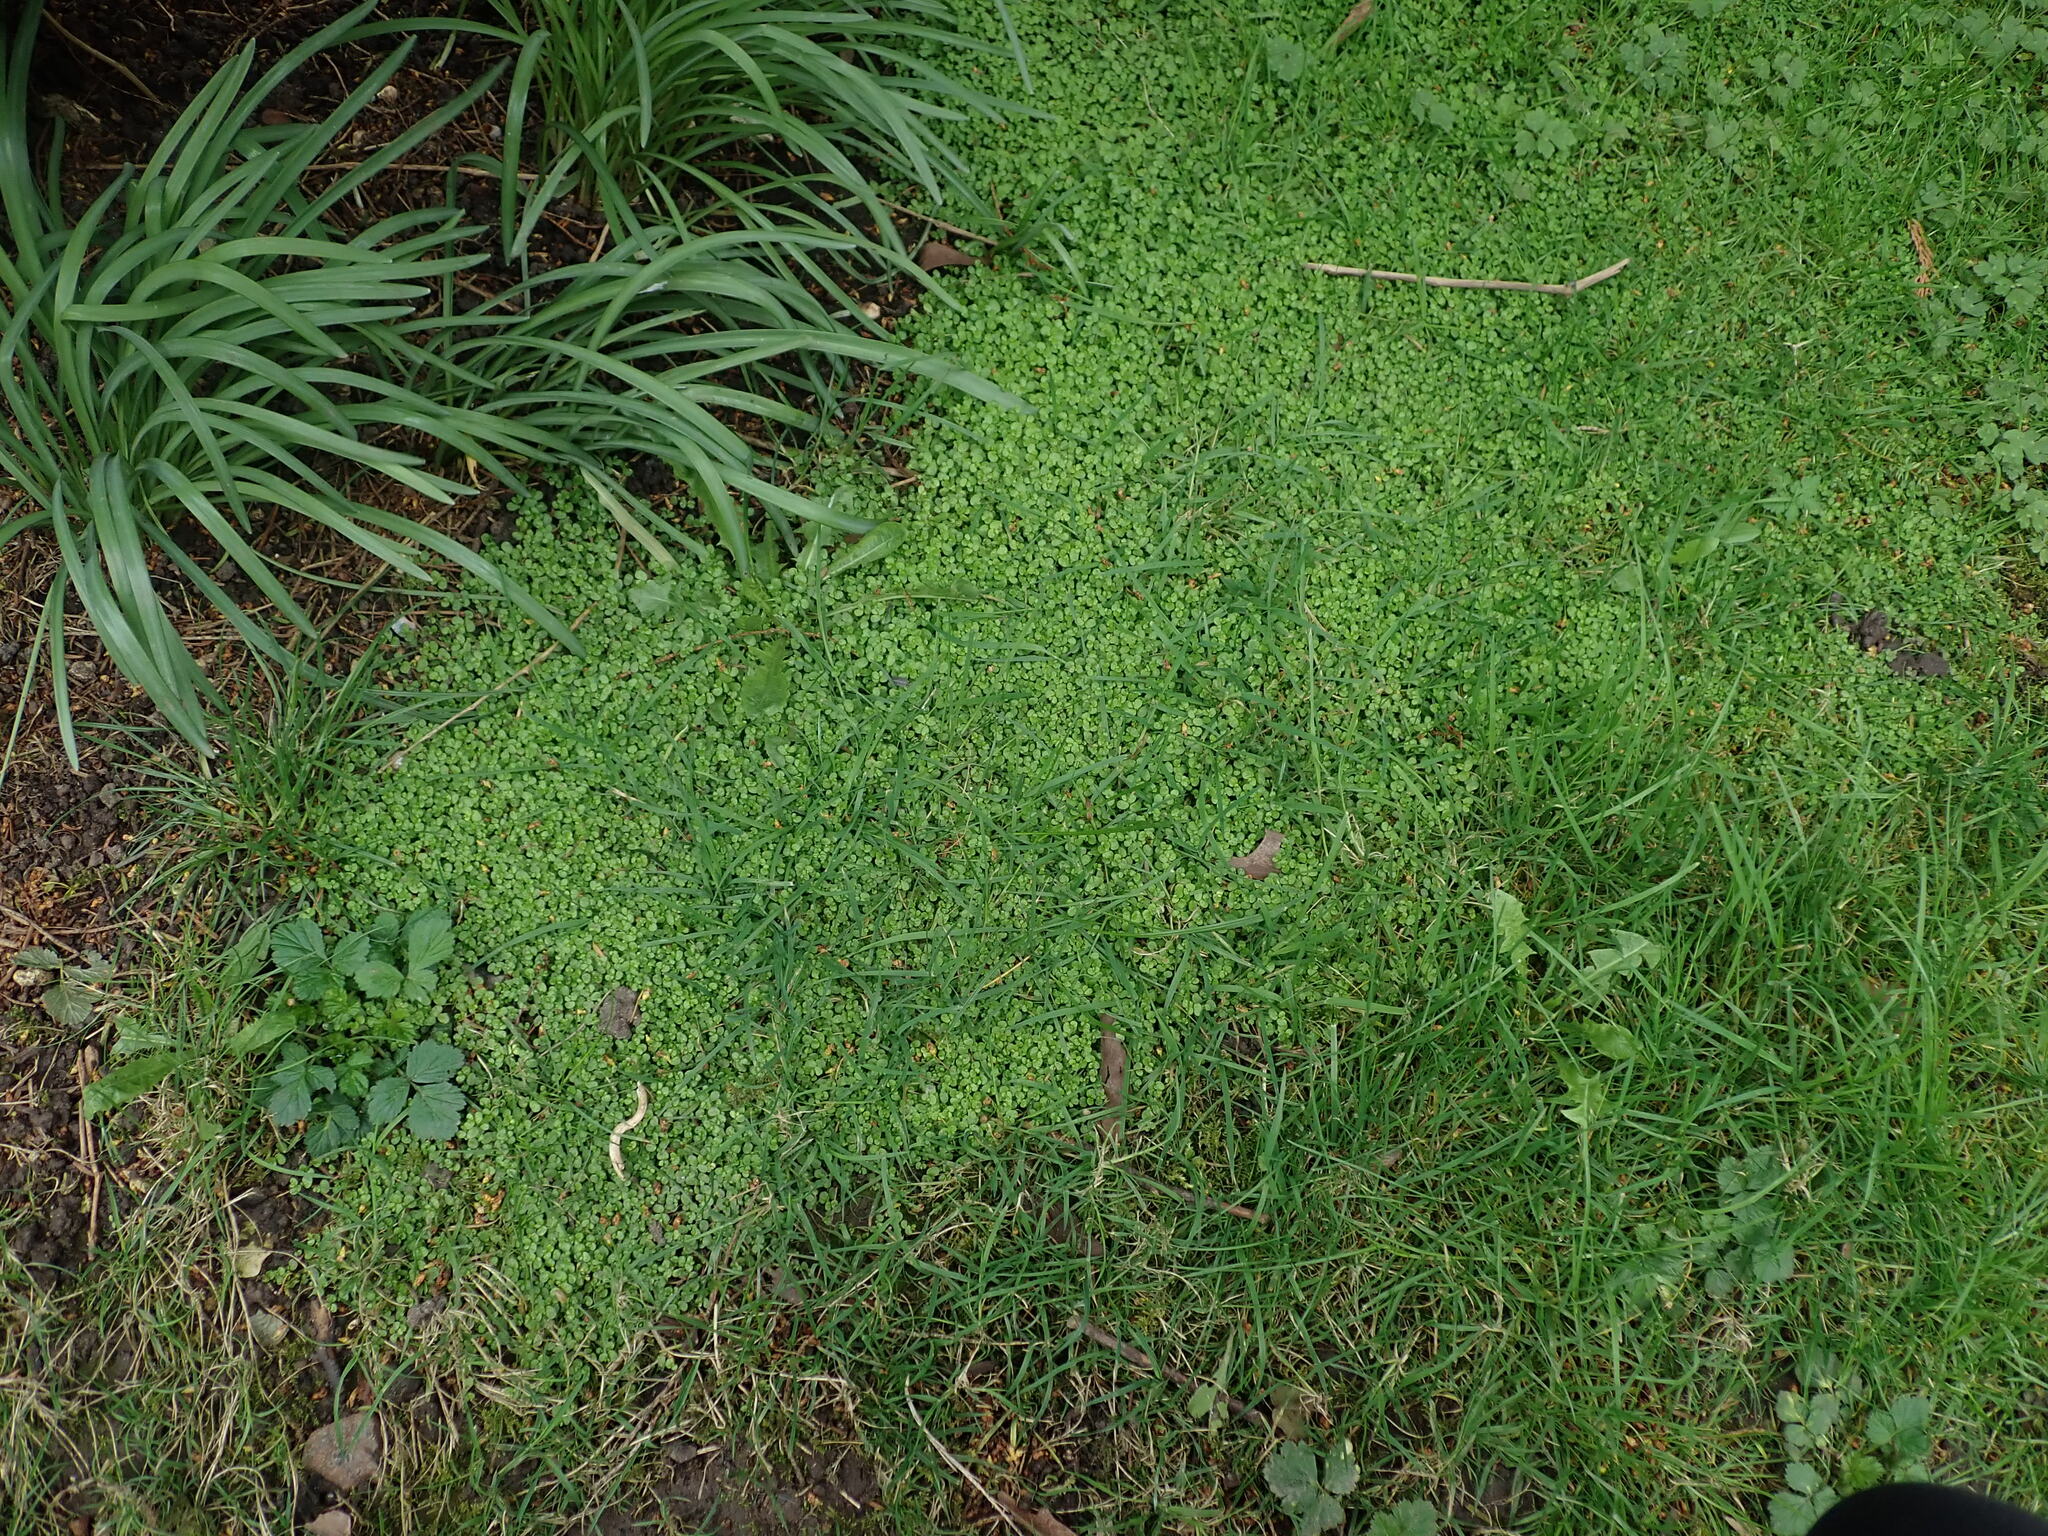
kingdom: Plantae
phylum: Tracheophyta
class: Magnoliopsida
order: Rosales
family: Urticaceae
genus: Soleirolia
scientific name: Soleirolia soleirolii
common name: Mind-your-own-business
